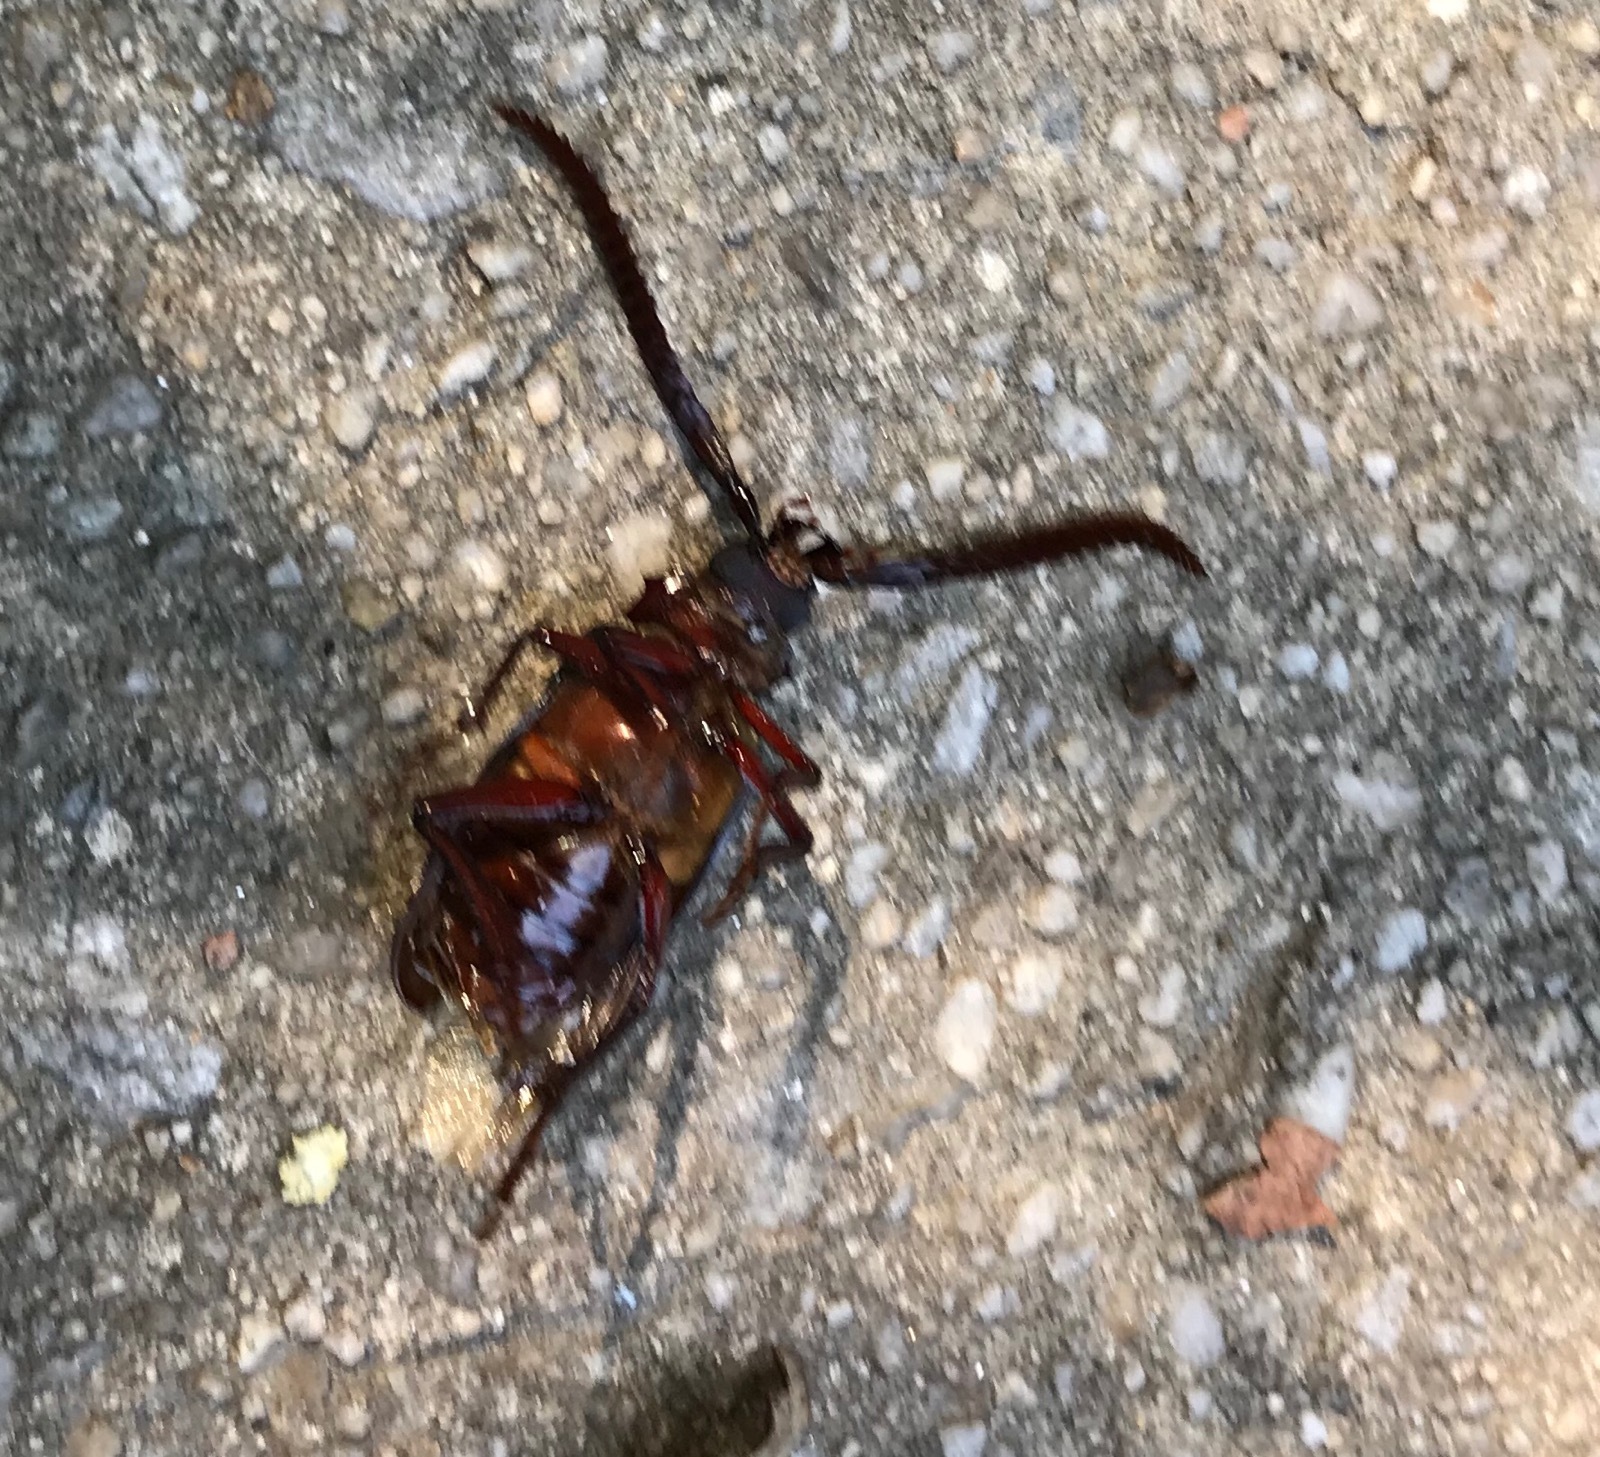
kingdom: Animalia
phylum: Arthropoda
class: Insecta
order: Coleoptera
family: Cerambycidae
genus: Prionus
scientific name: Prionus imbricornis
